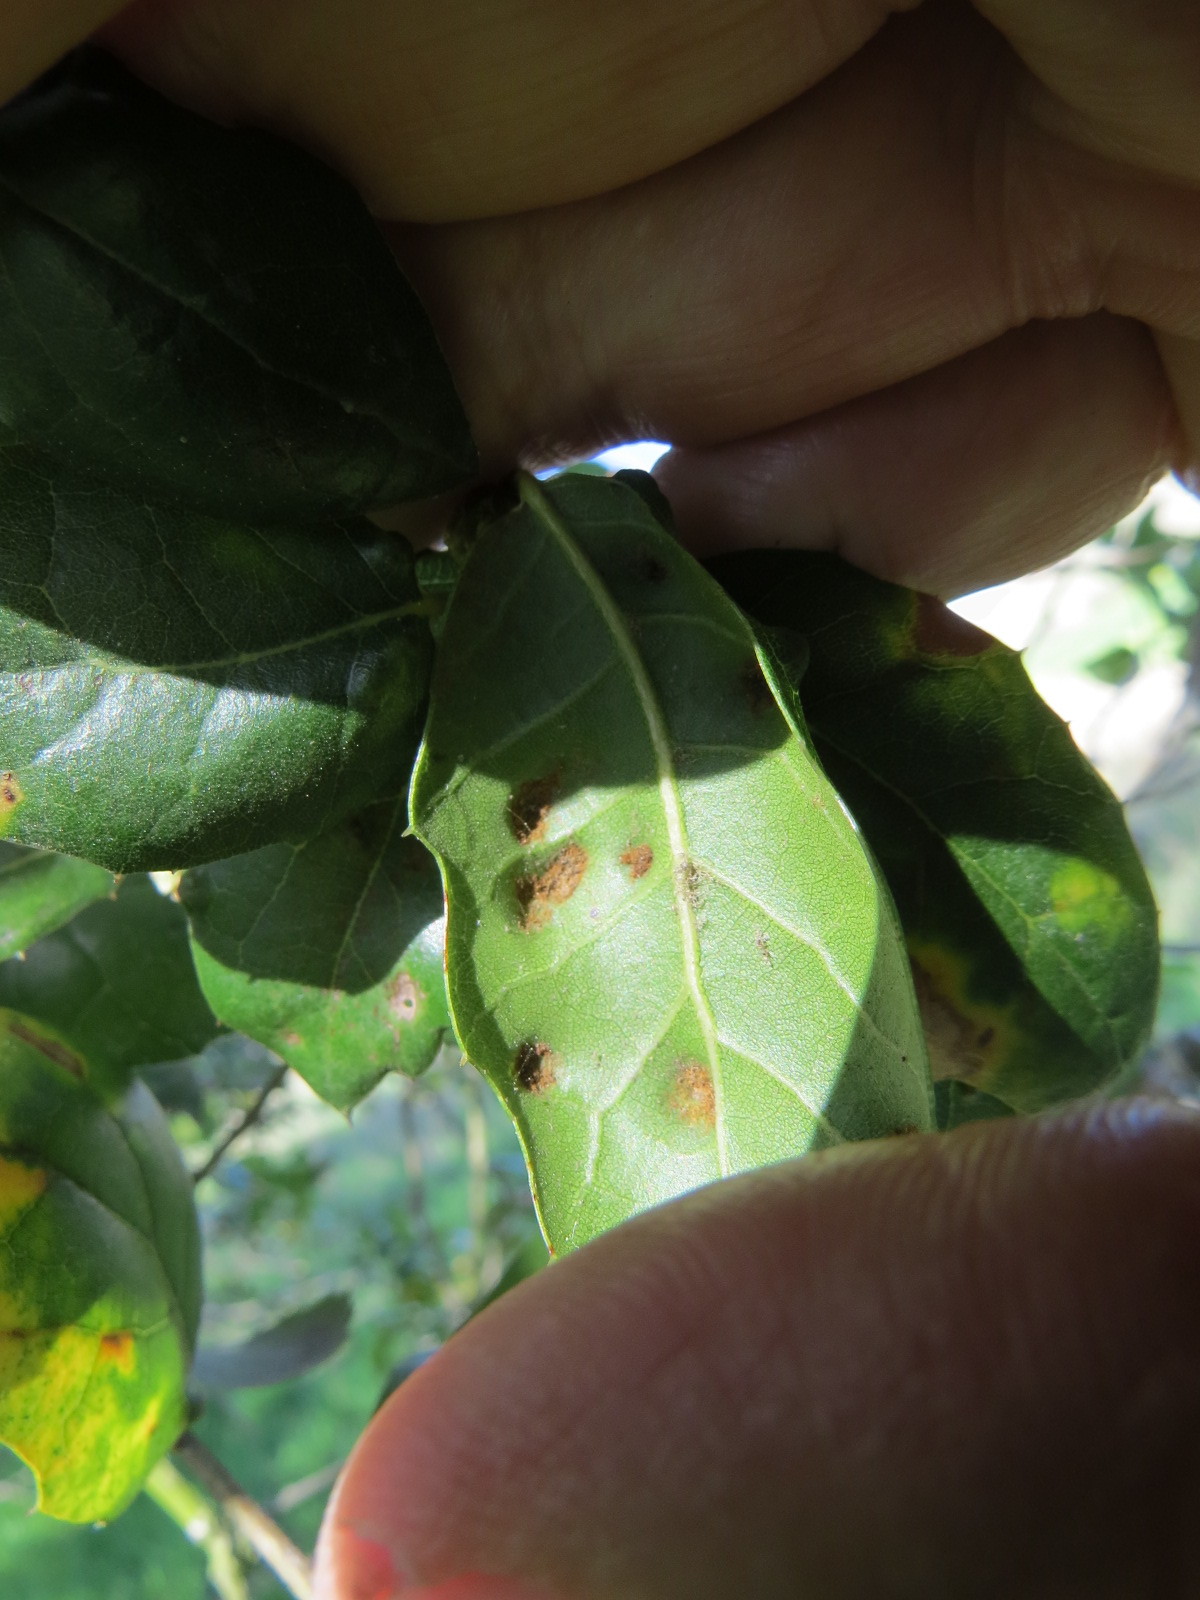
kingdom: Animalia
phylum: Arthropoda
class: Arachnida
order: Trombidiformes
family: Eriophyidae
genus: Aceria
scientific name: Aceria
